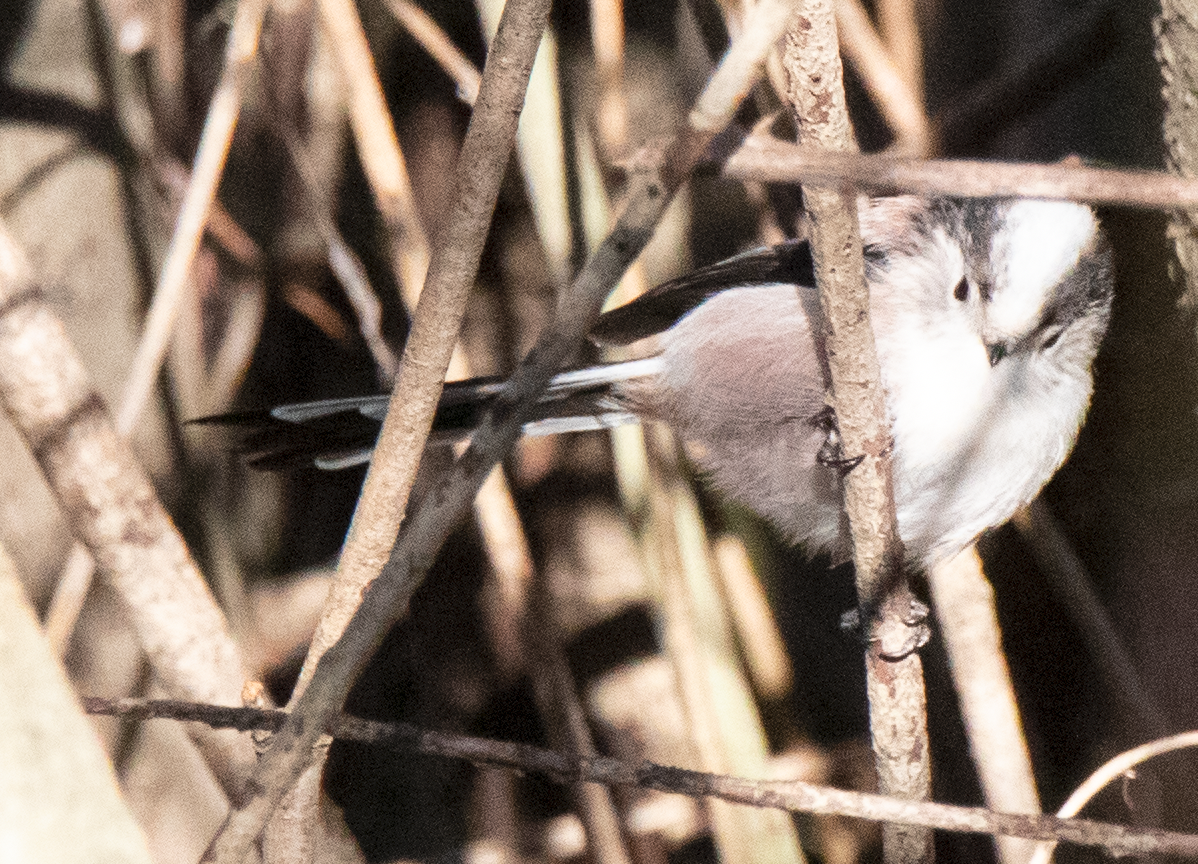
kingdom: Animalia
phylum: Chordata
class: Aves
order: Passeriformes
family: Aegithalidae
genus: Aegithalos
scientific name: Aegithalos caudatus
